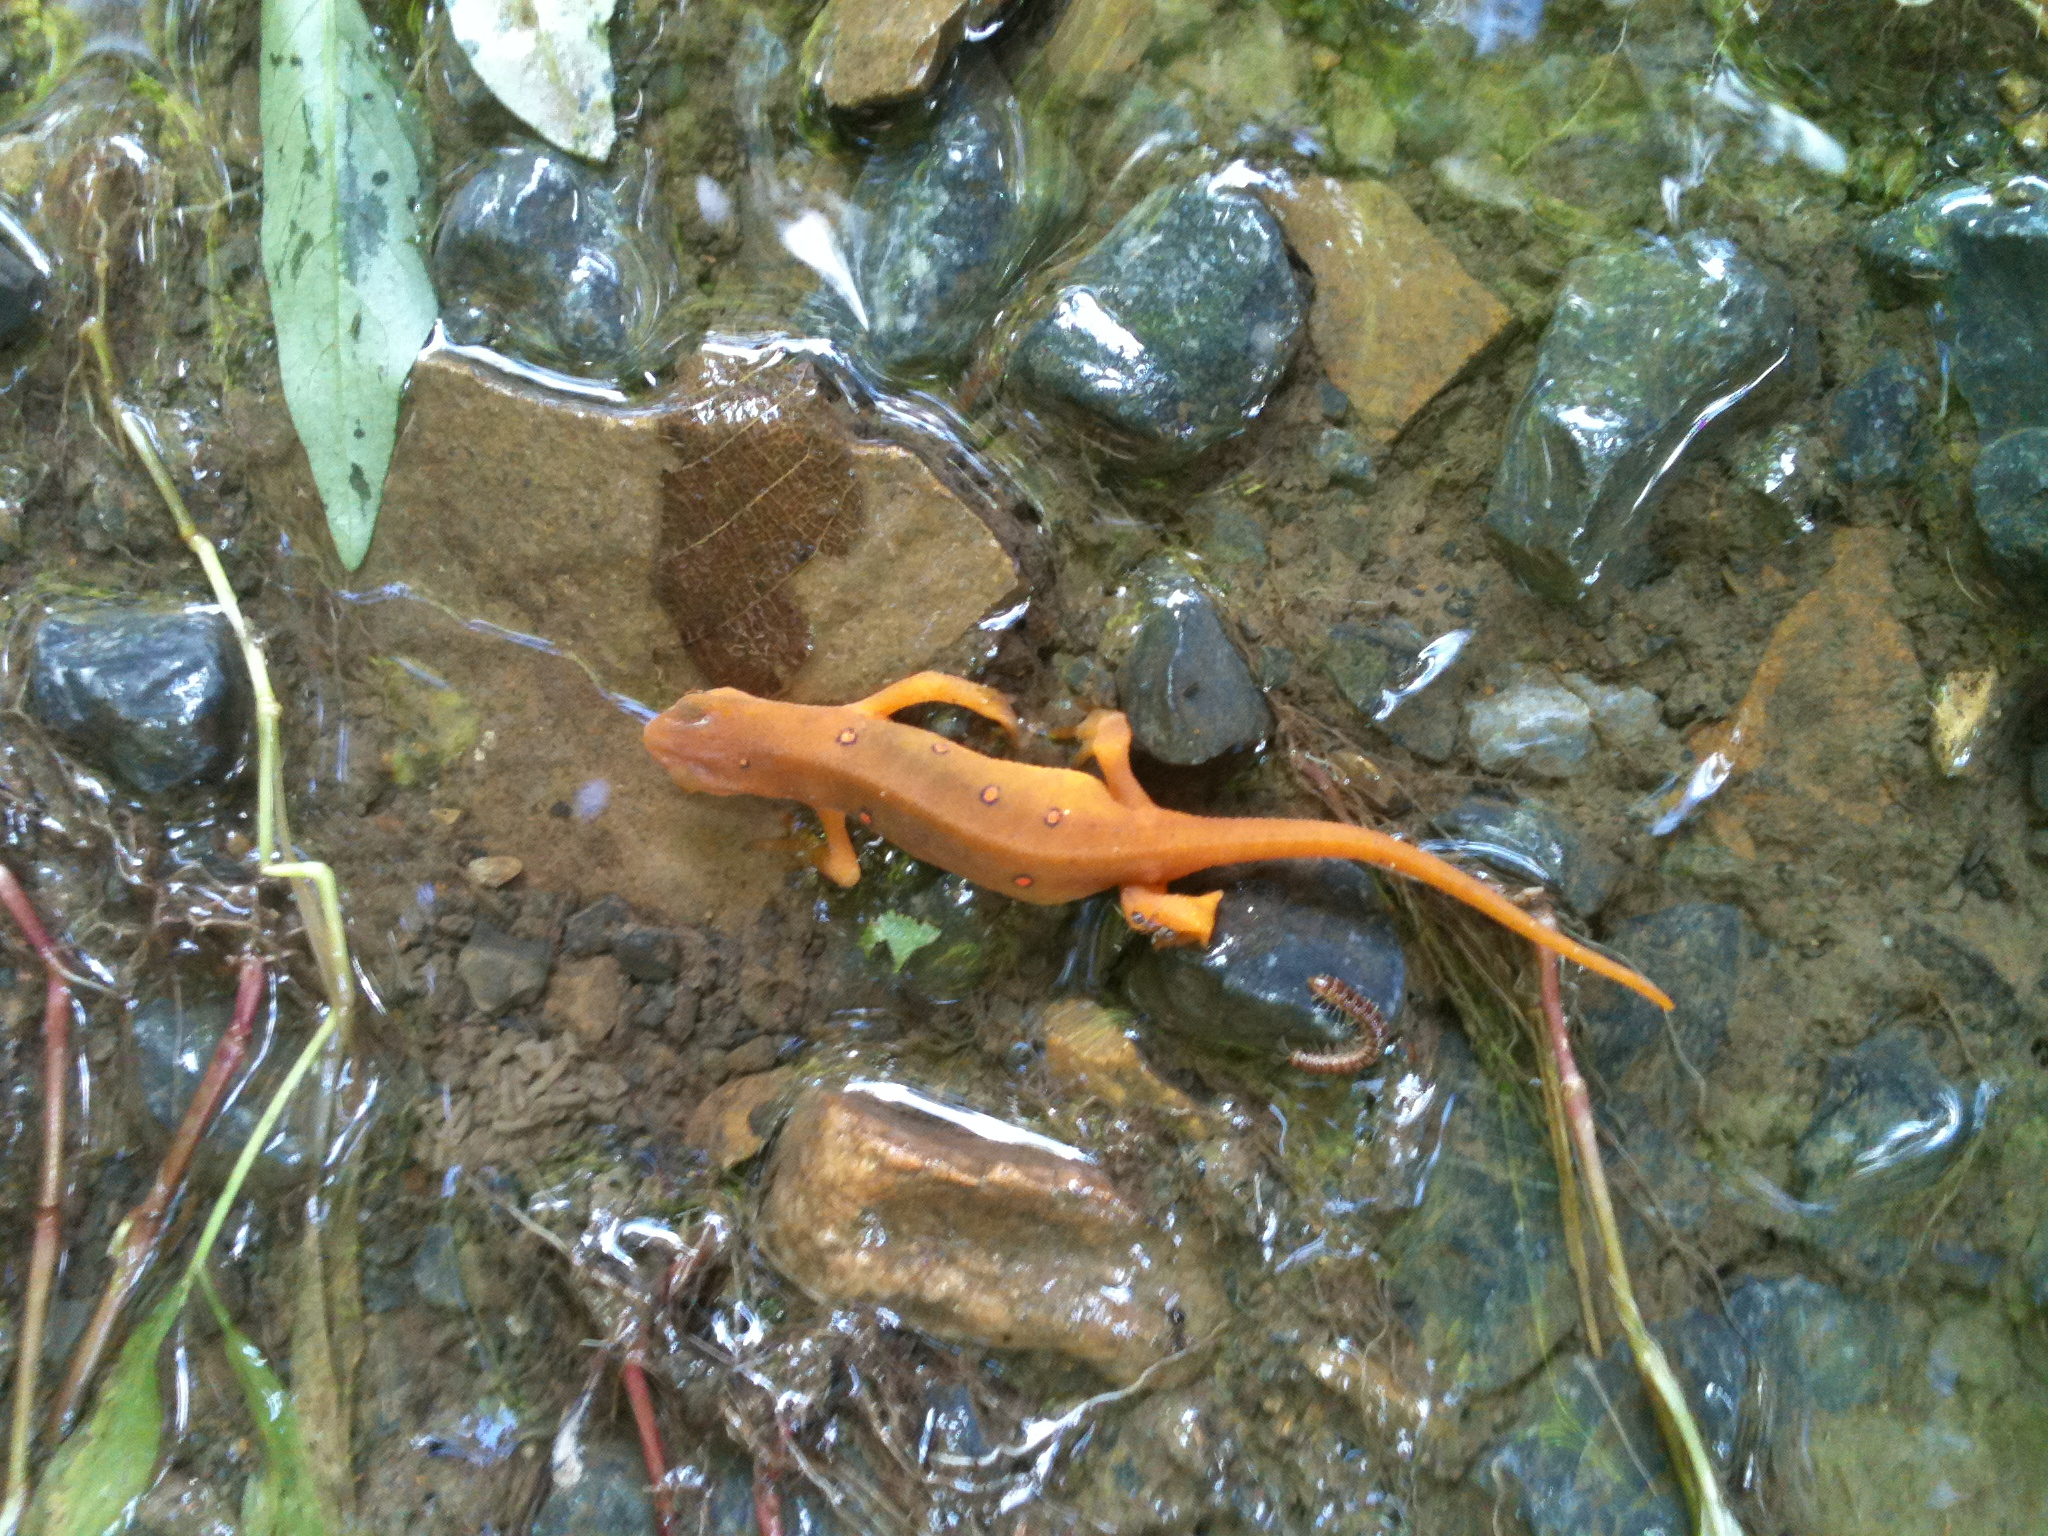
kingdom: Animalia
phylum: Chordata
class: Amphibia
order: Caudata
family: Salamandridae
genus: Notophthalmus
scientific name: Notophthalmus viridescens
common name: Eastern newt
